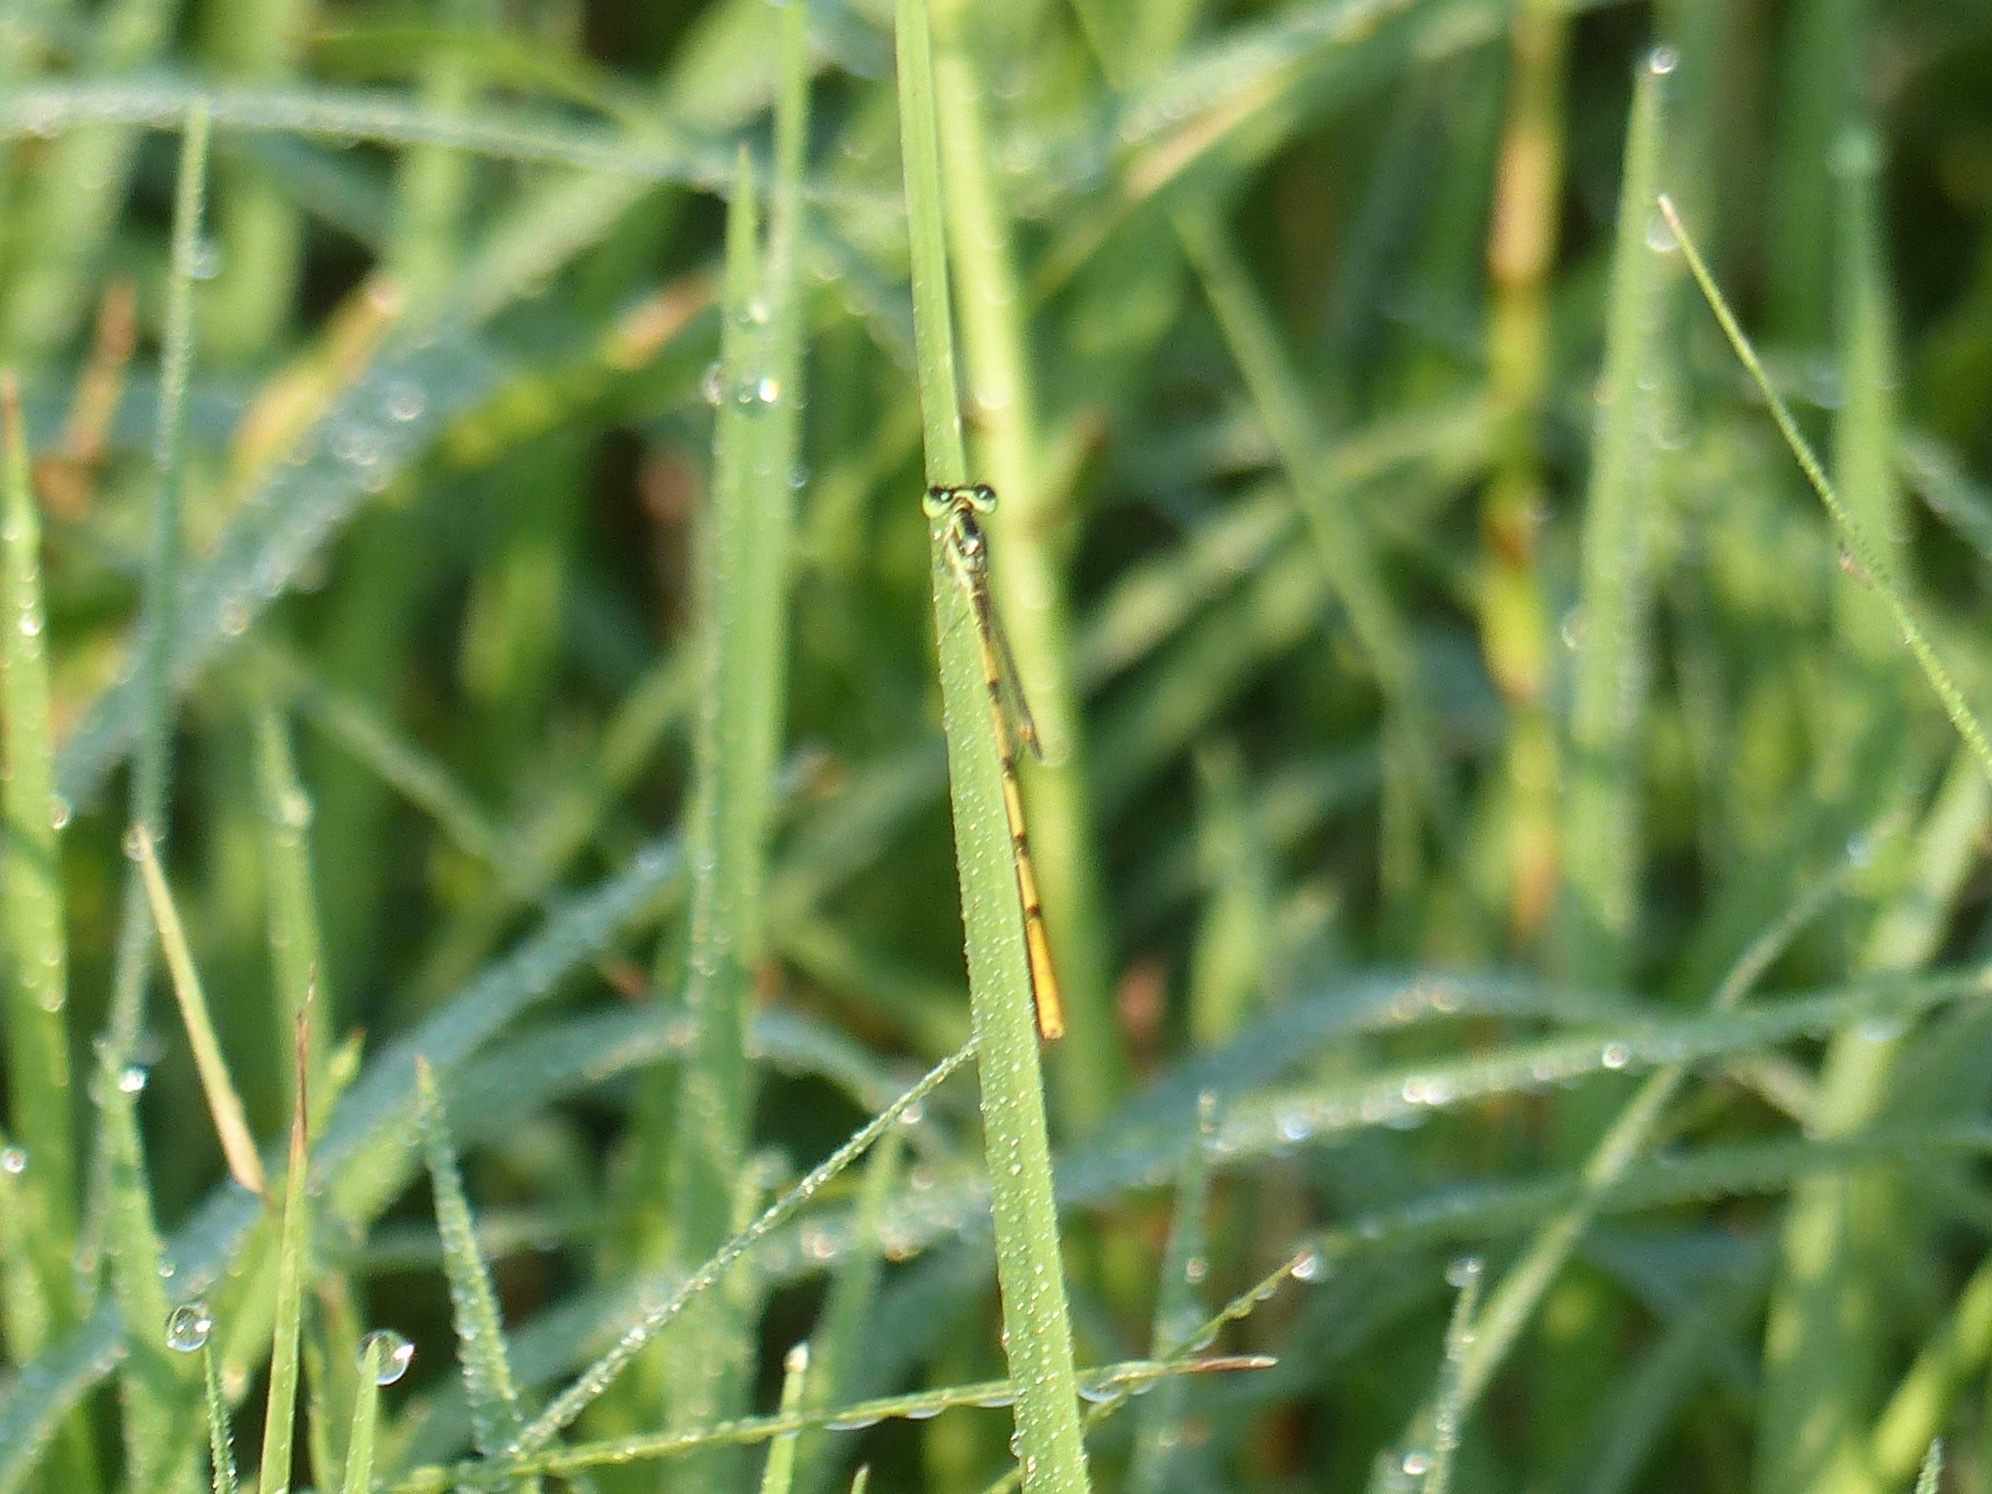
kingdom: Animalia
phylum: Arthropoda
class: Insecta
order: Odonata
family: Coenagrionidae
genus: Ischnura
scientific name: Ischnura hastata
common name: Citrine forktail
